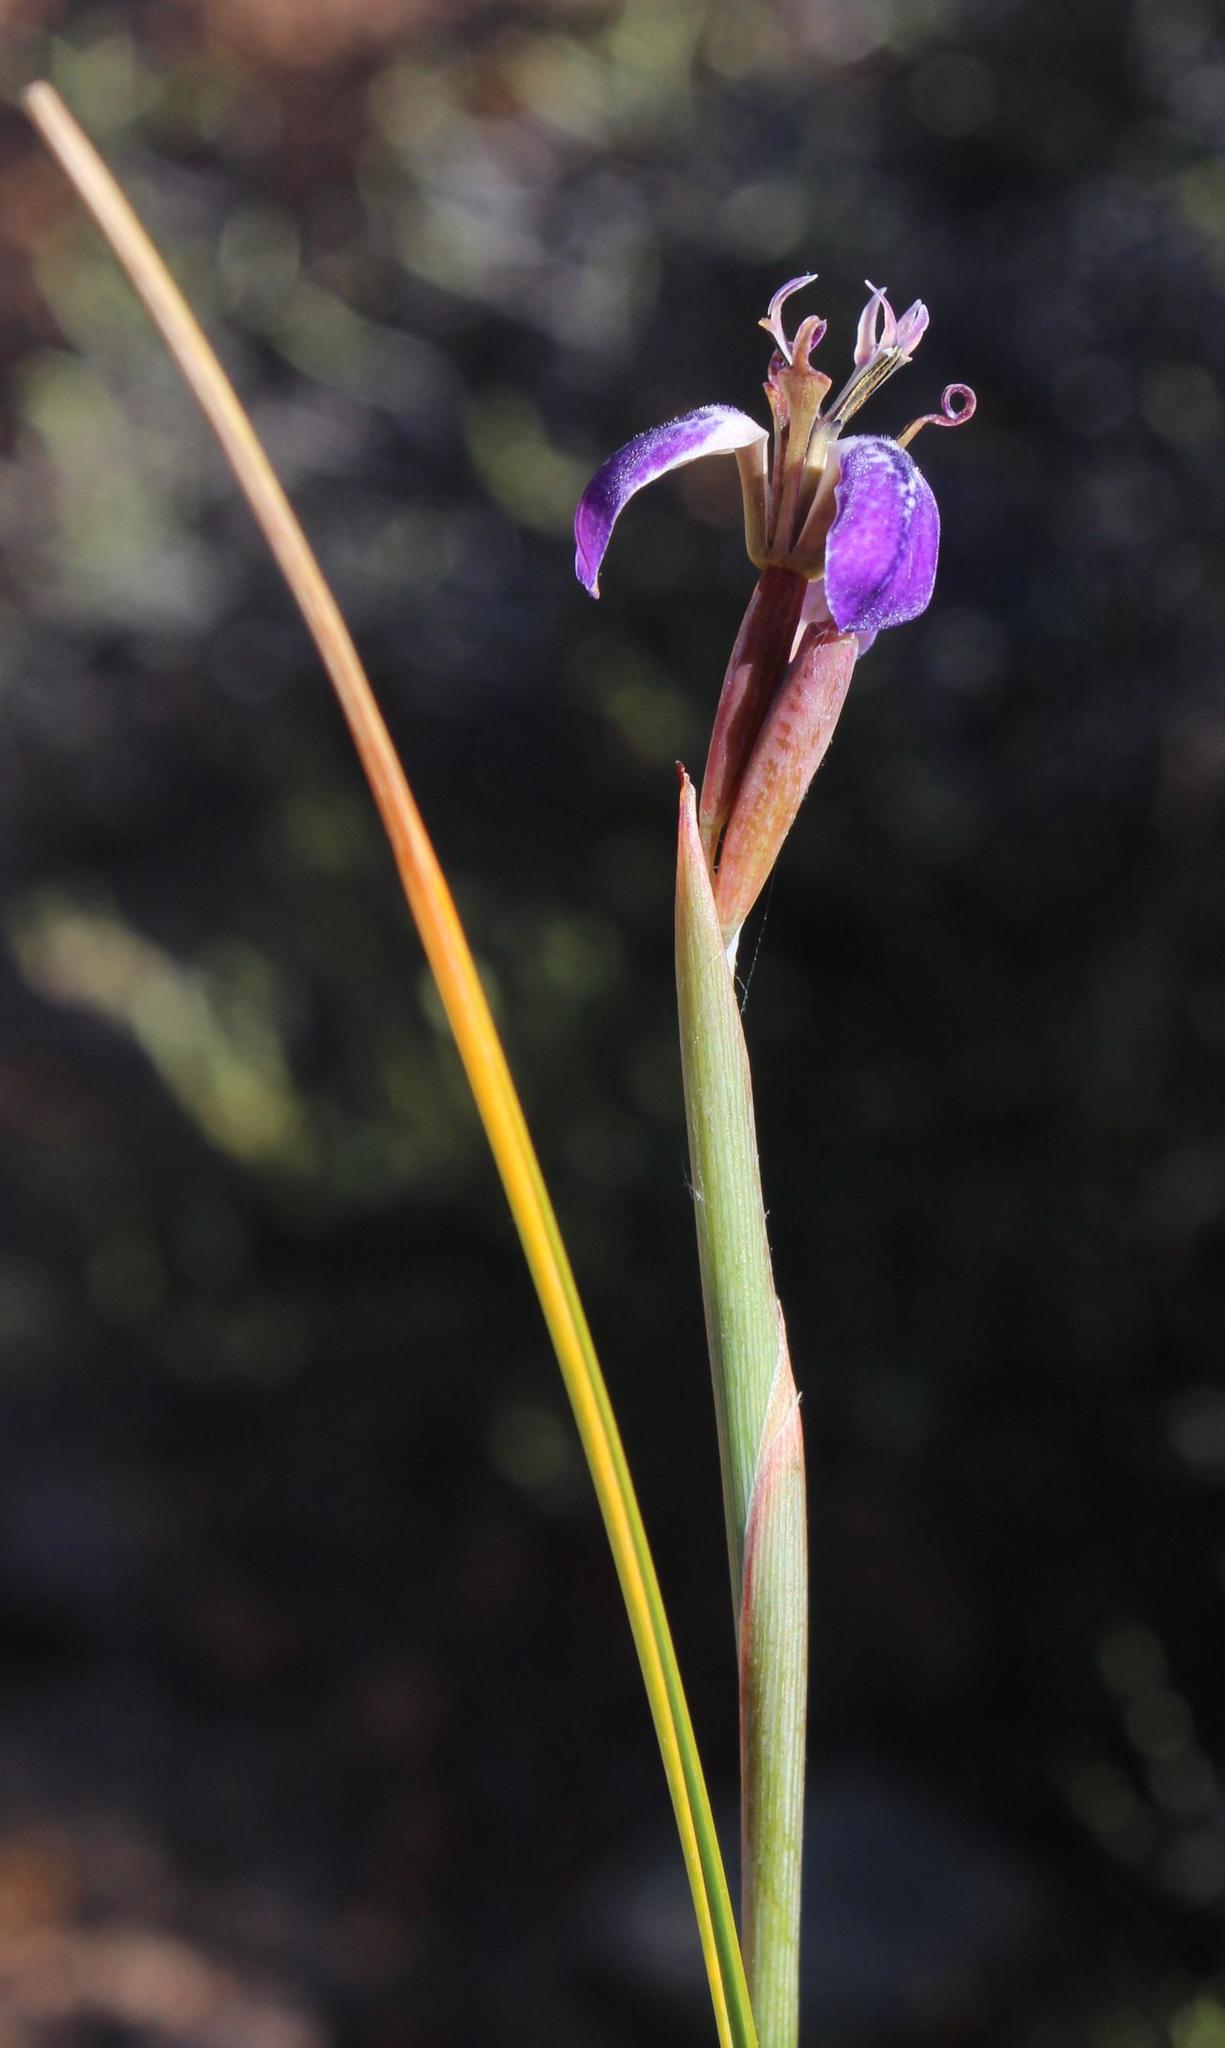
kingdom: Plantae
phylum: Tracheophyta
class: Liliopsida
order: Asparagales
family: Iridaceae
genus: Moraea
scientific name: Moraea unguiculata
